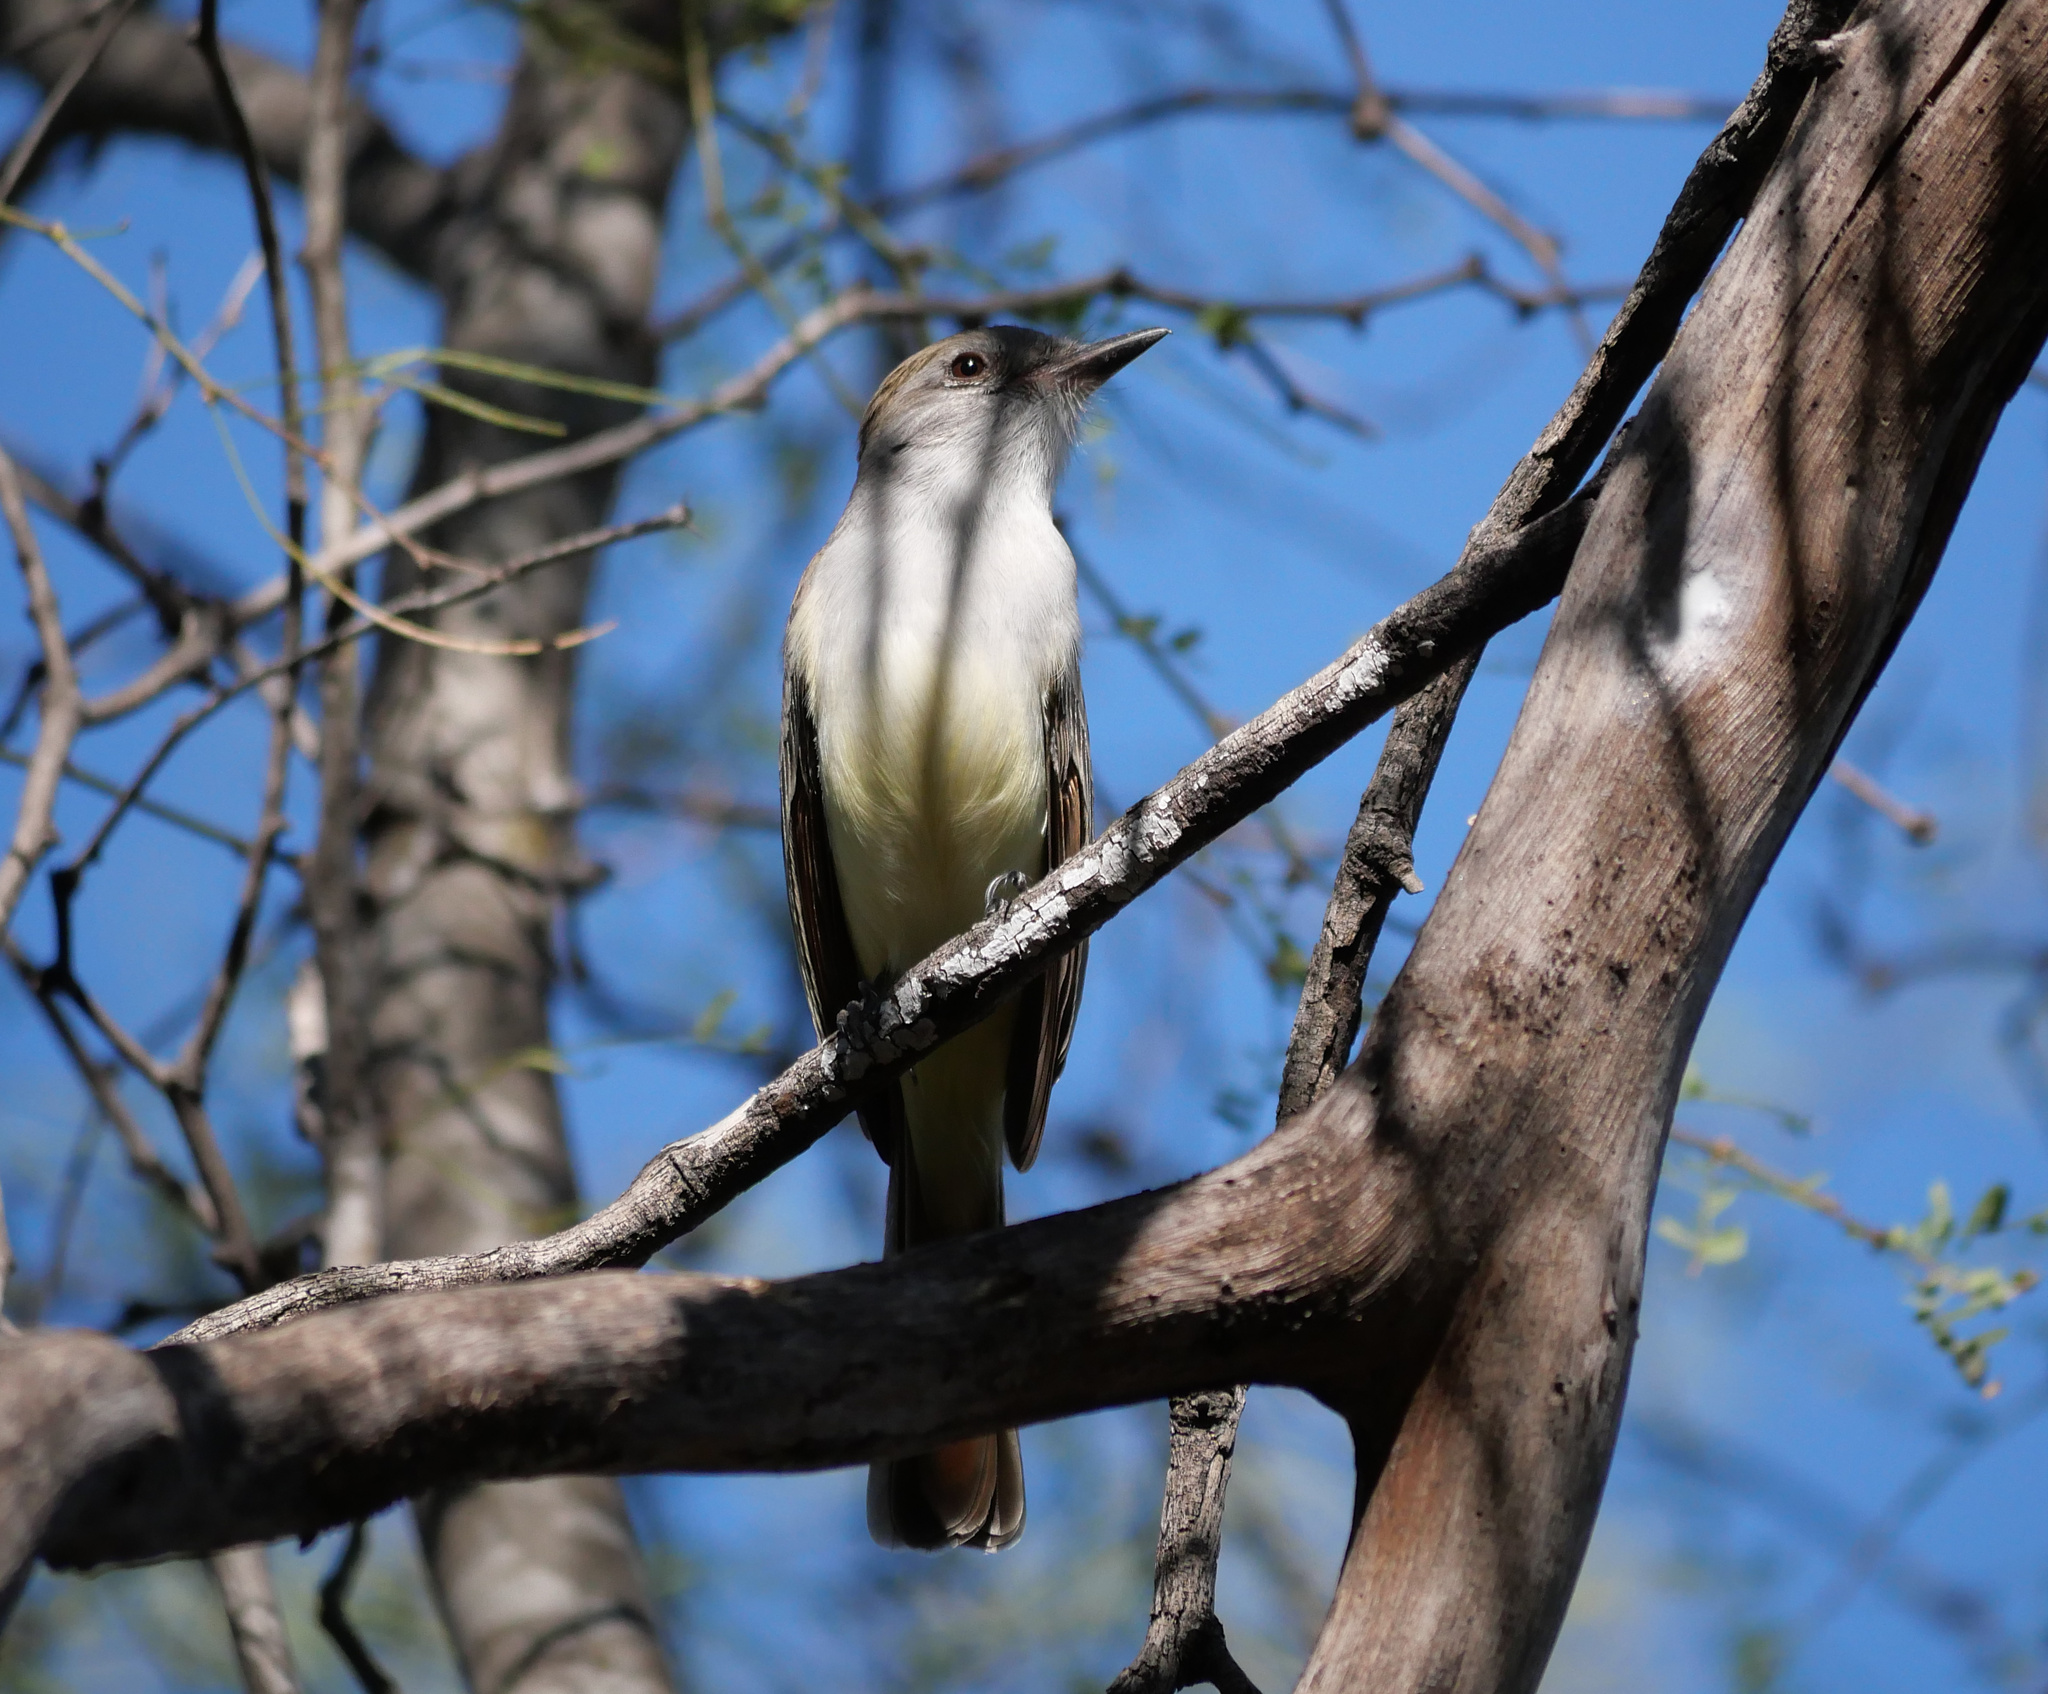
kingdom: Animalia
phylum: Chordata
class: Aves
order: Passeriformes
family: Tyrannidae
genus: Myiarchus
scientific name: Myiarchus cinerascens
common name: Ash-throated flycatcher
